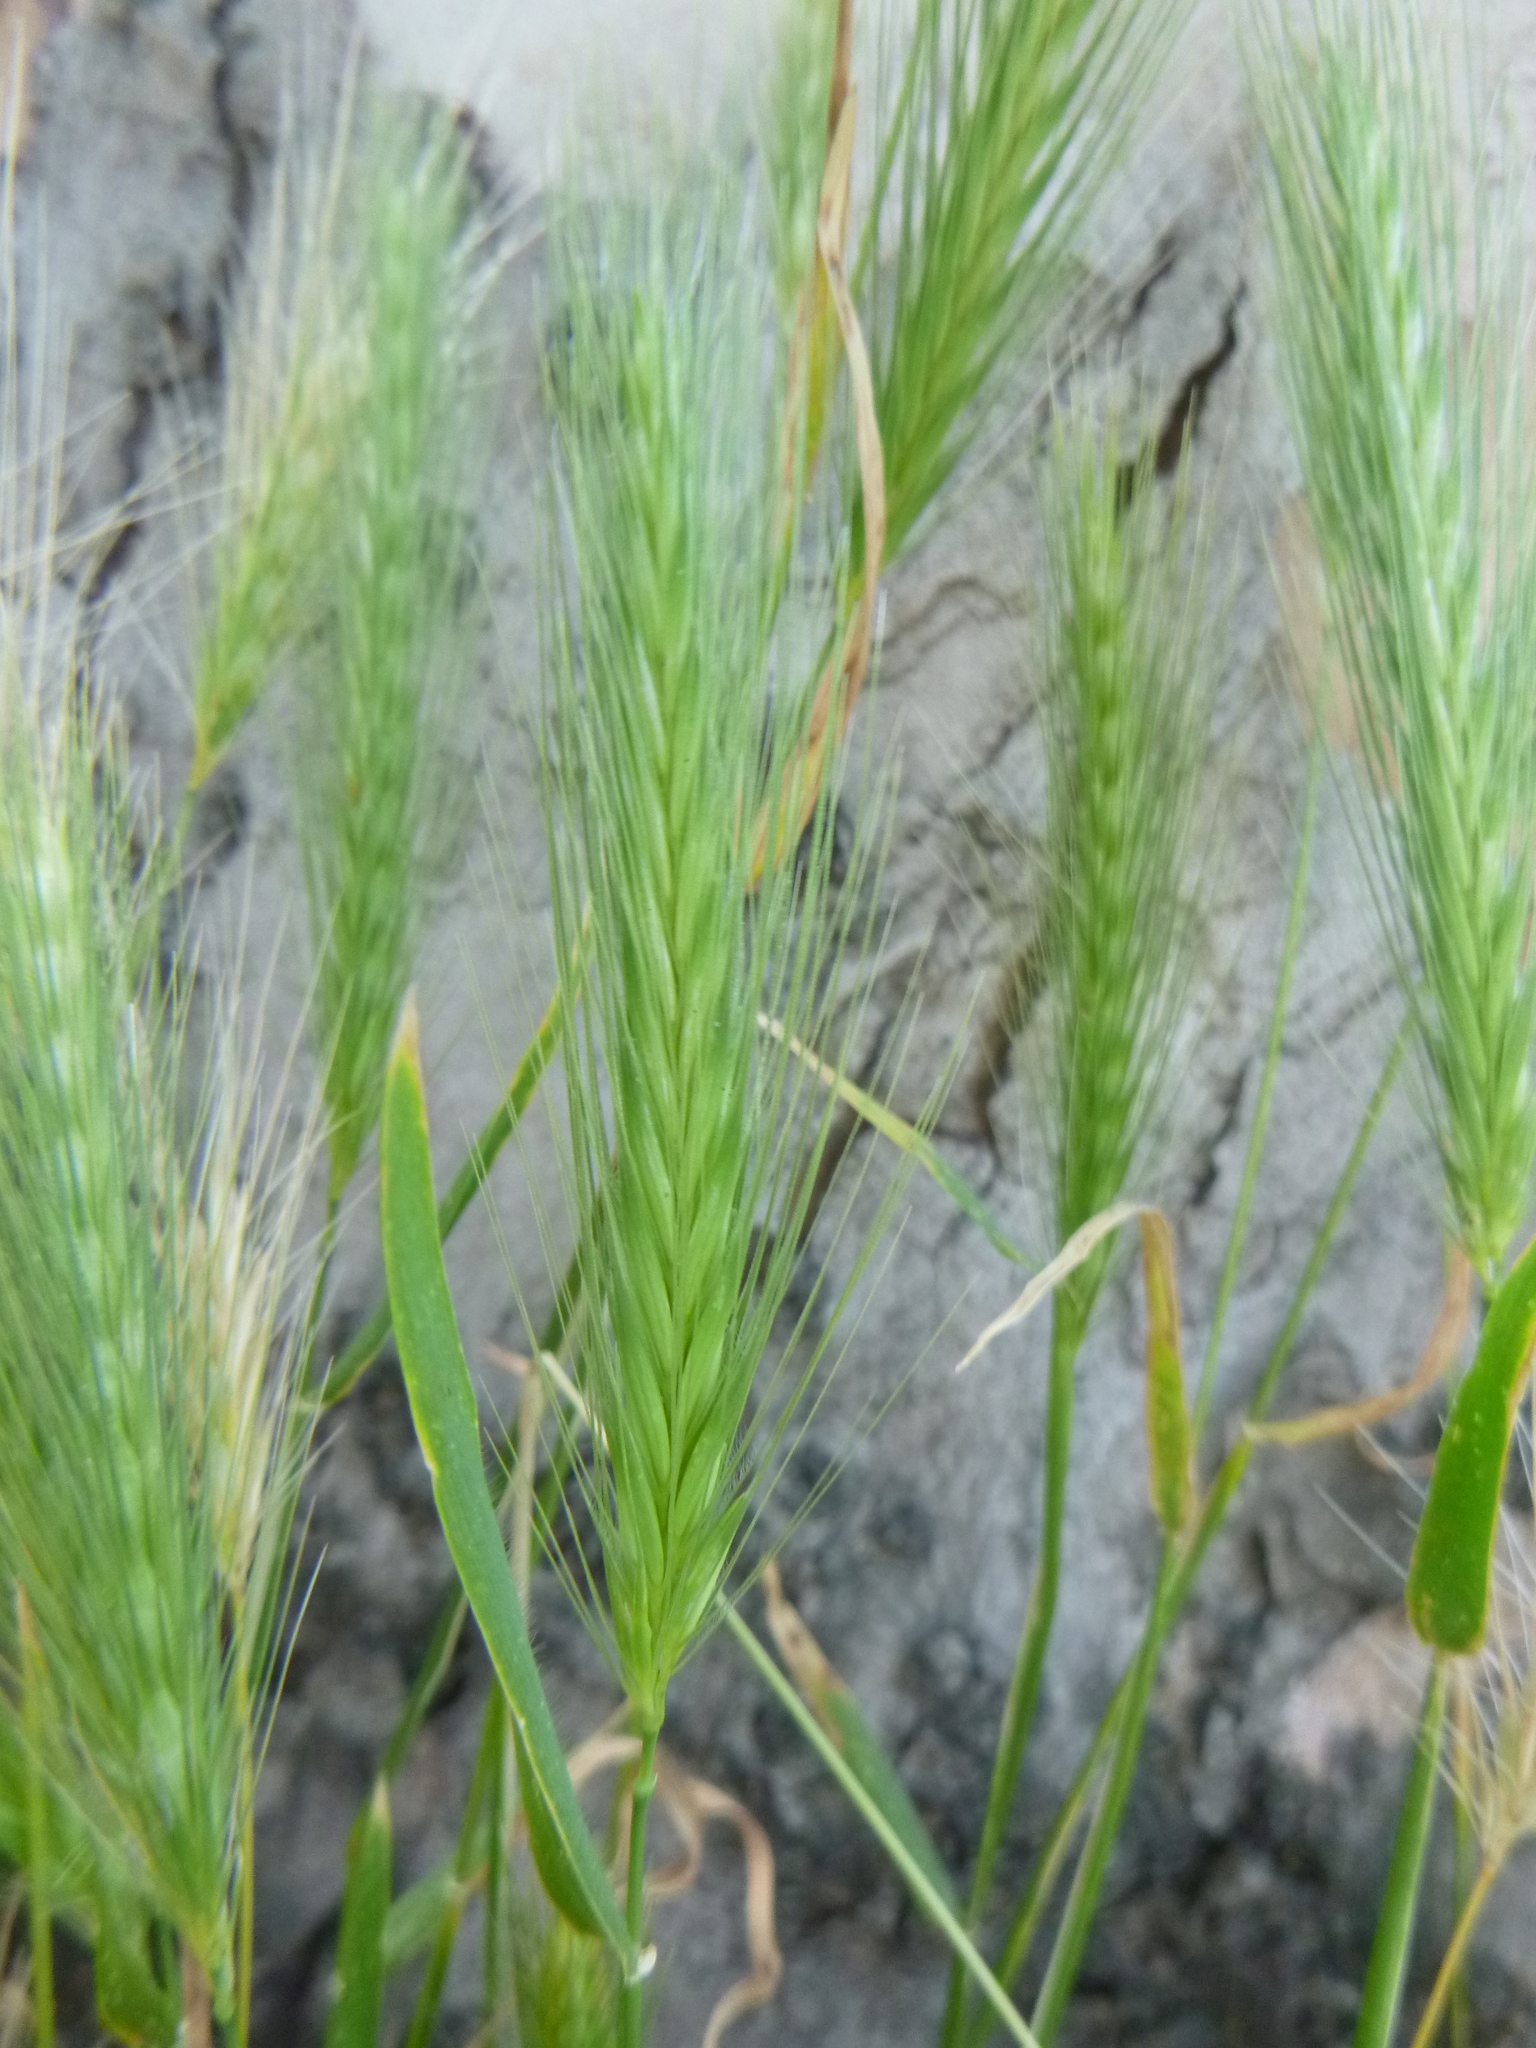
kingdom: Plantae
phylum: Tracheophyta
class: Liliopsida
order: Poales
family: Poaceae
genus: Hordeum
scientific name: Hordeum murinum
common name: Wall barley
